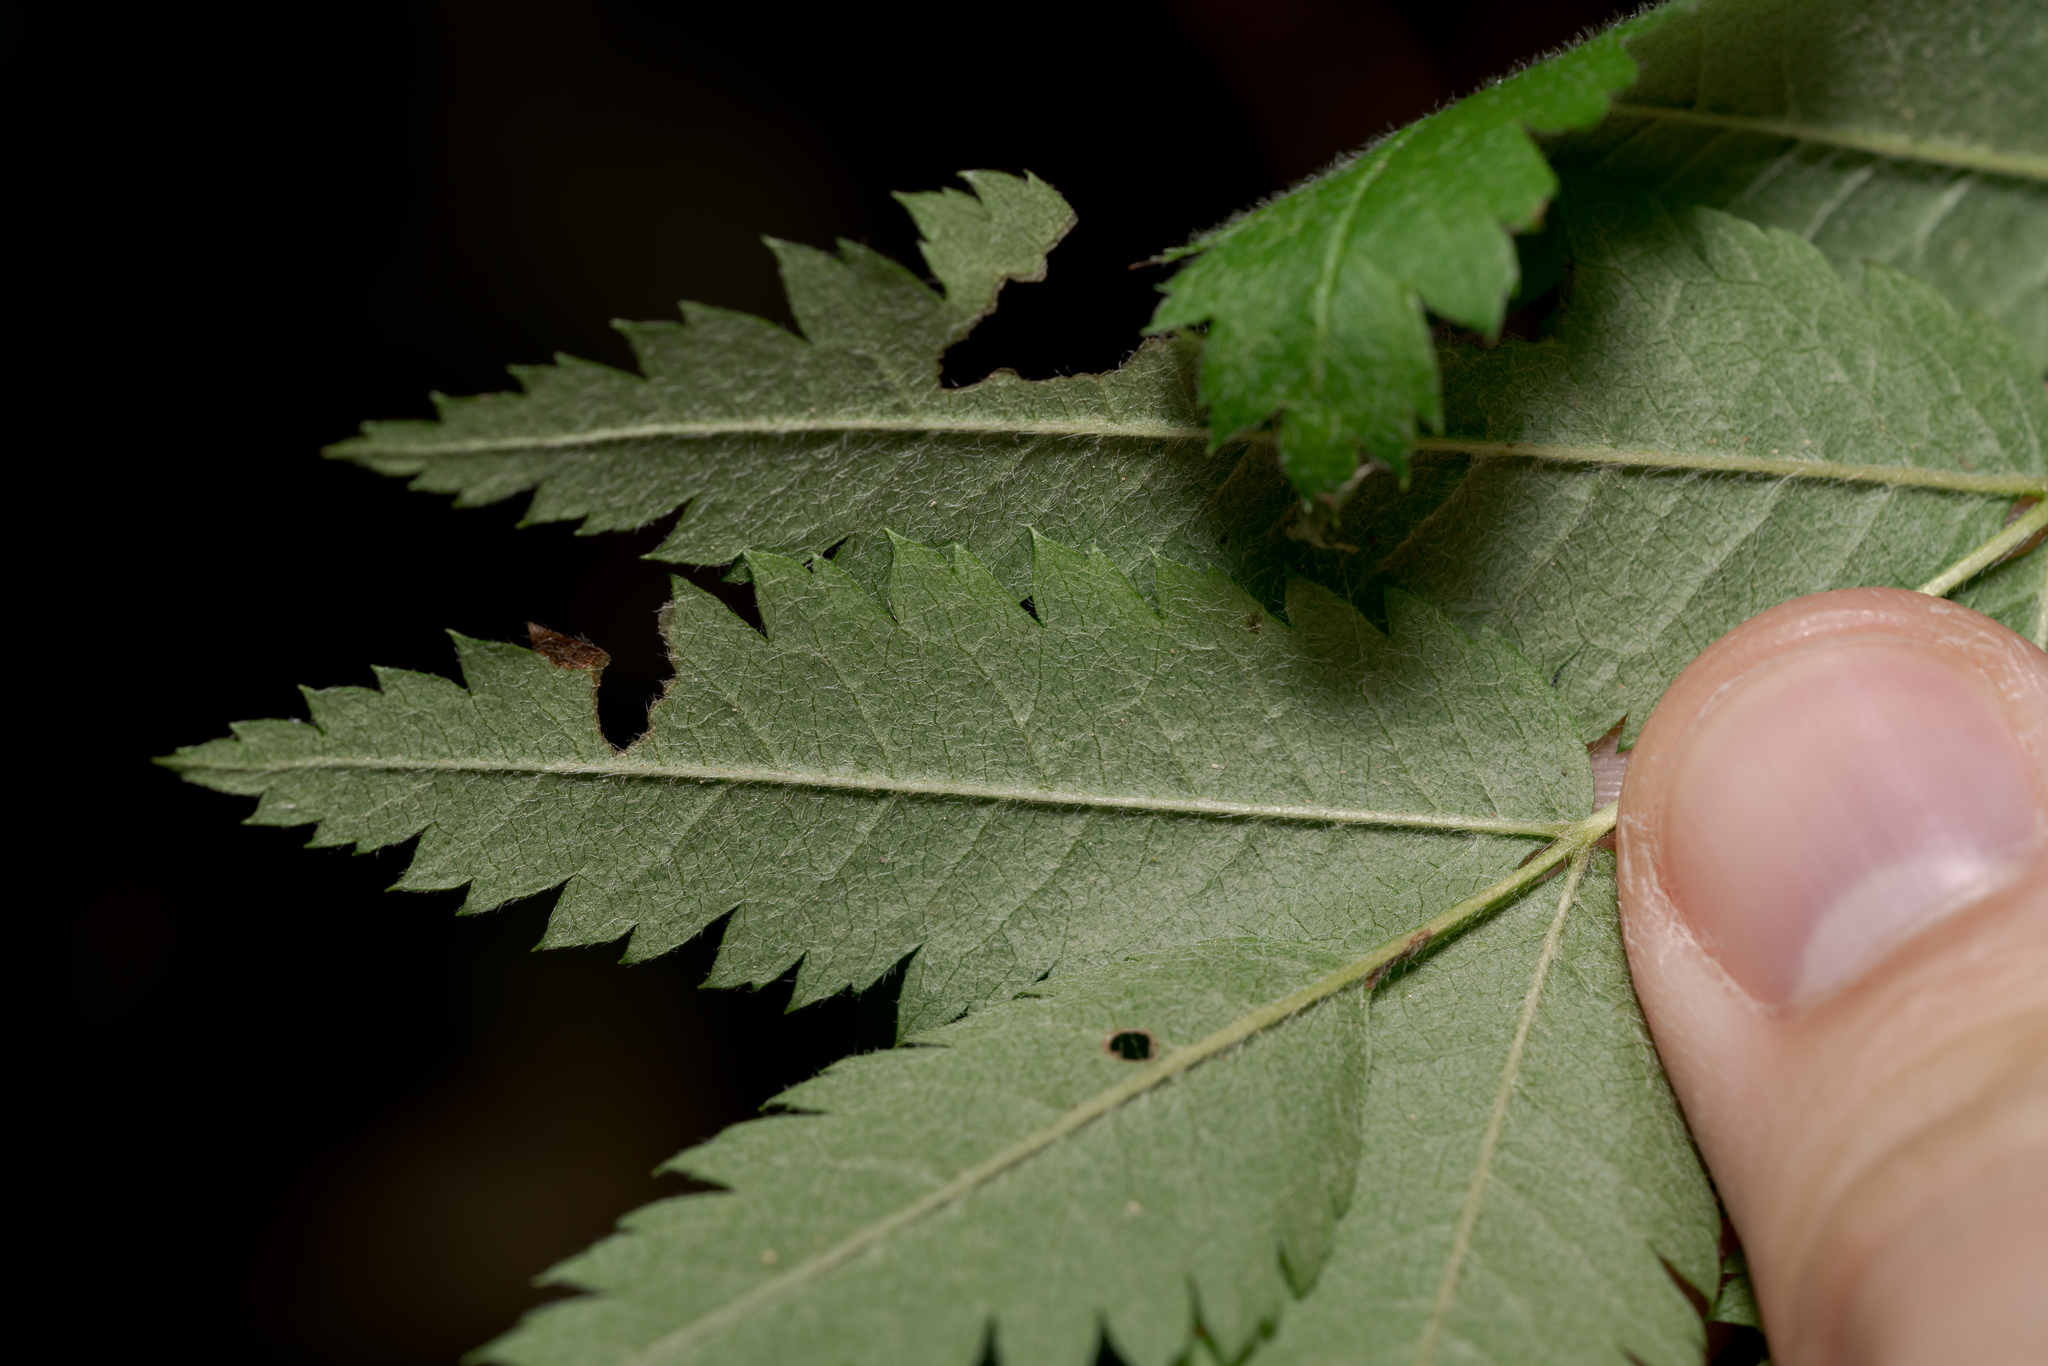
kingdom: Plantae
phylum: Tracheophyta
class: Magnoliopsida
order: Rosales
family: Rosaceae
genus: Sorbus
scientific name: Sorbus aucuparia
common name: Rowan
